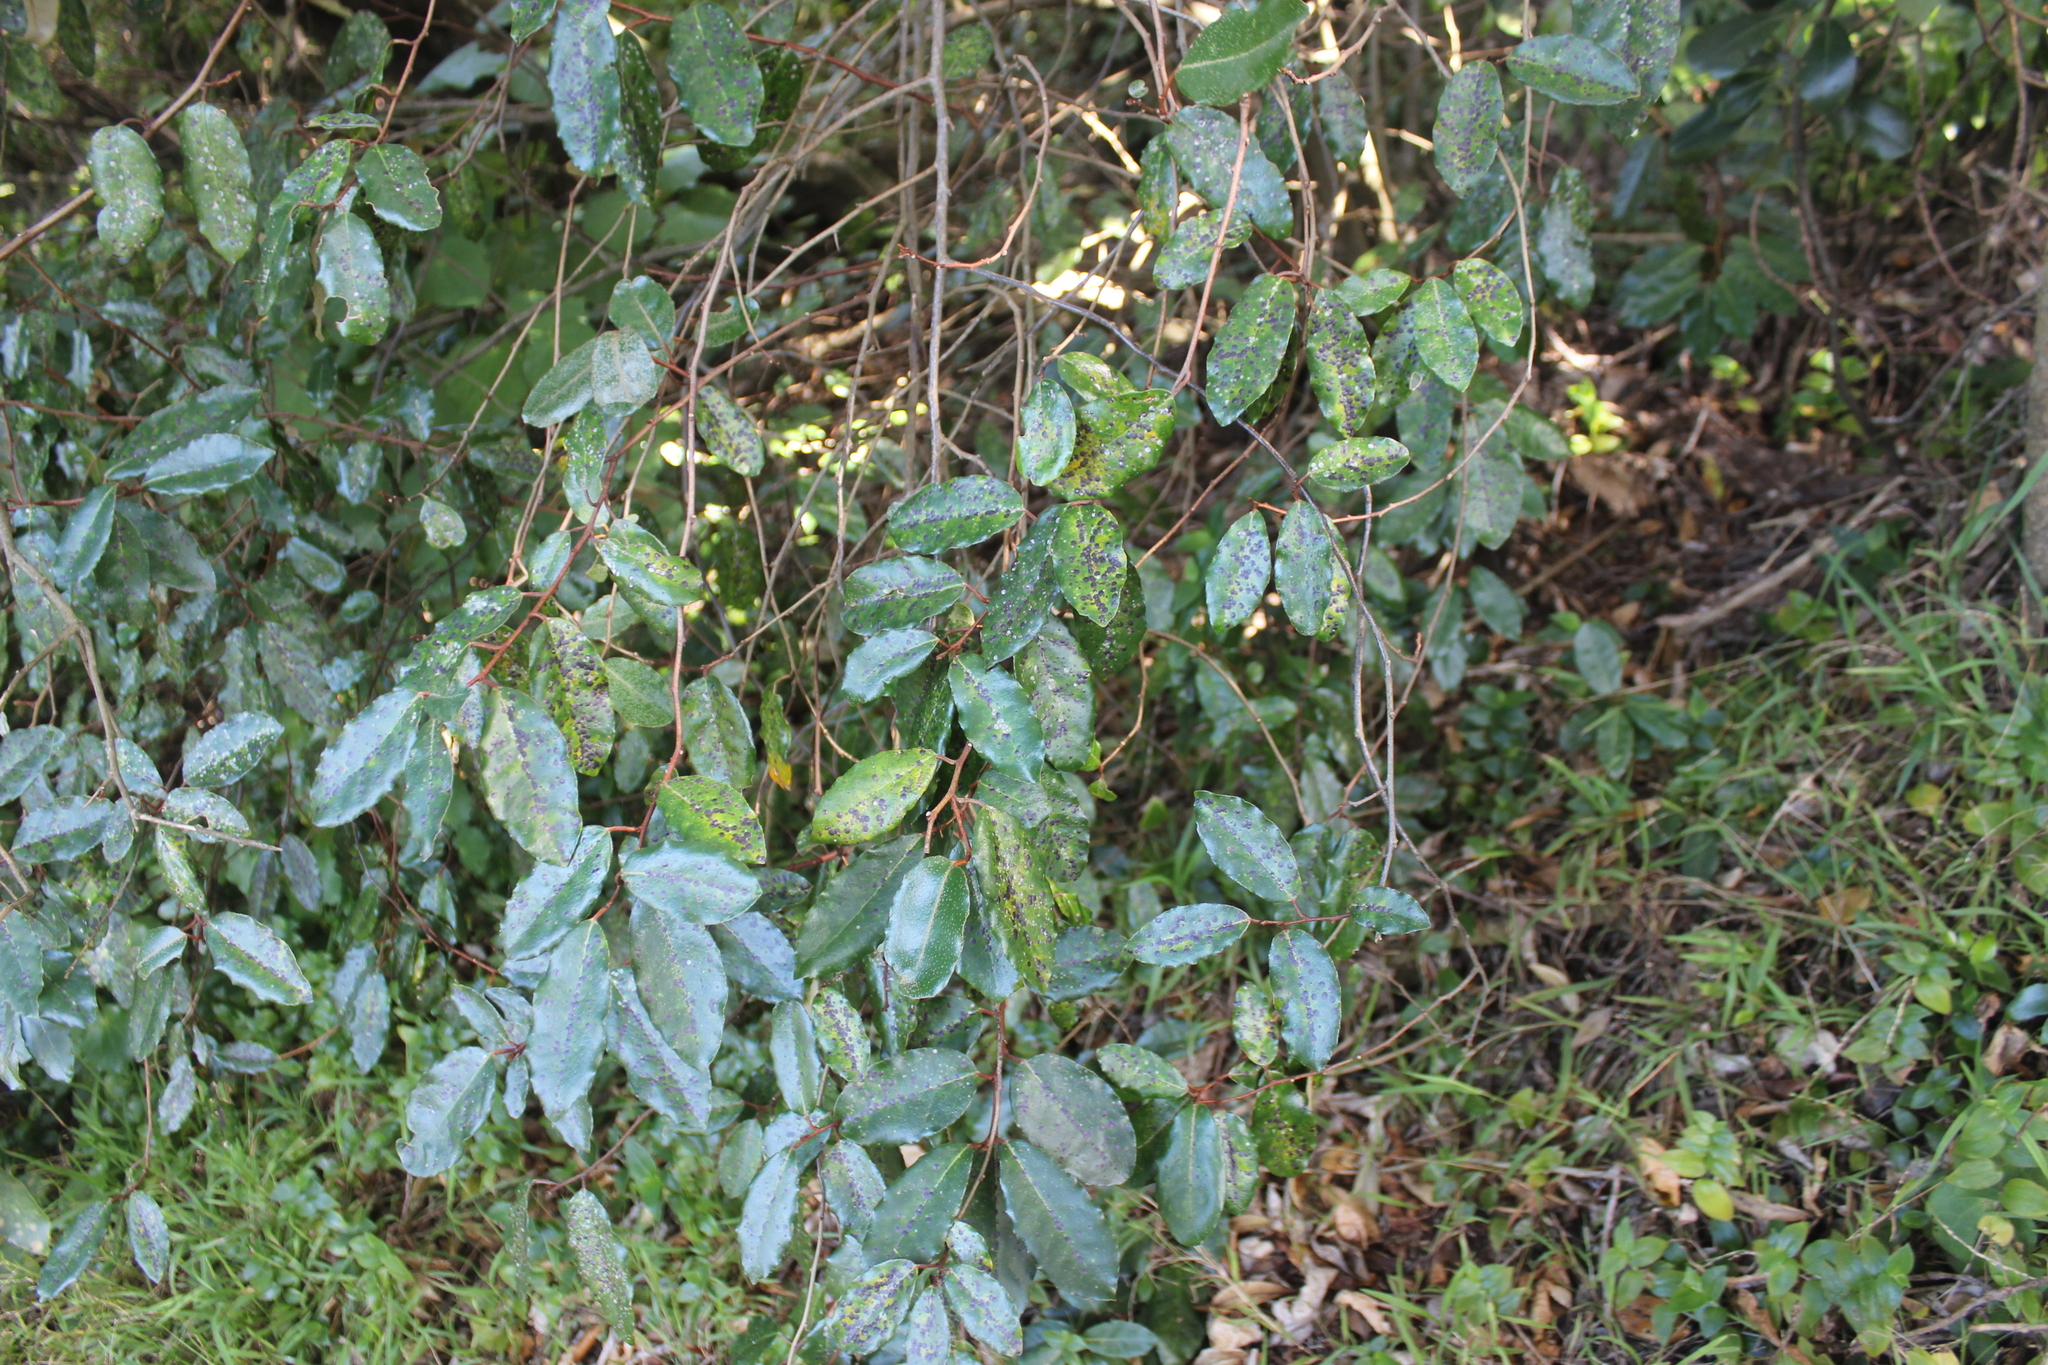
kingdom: Plantae
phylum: Tracheophyta
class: Magnoliopsida
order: Rosales
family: Elaeagnaceae
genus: Elaeagnus
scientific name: Elaeagnus reflexa
